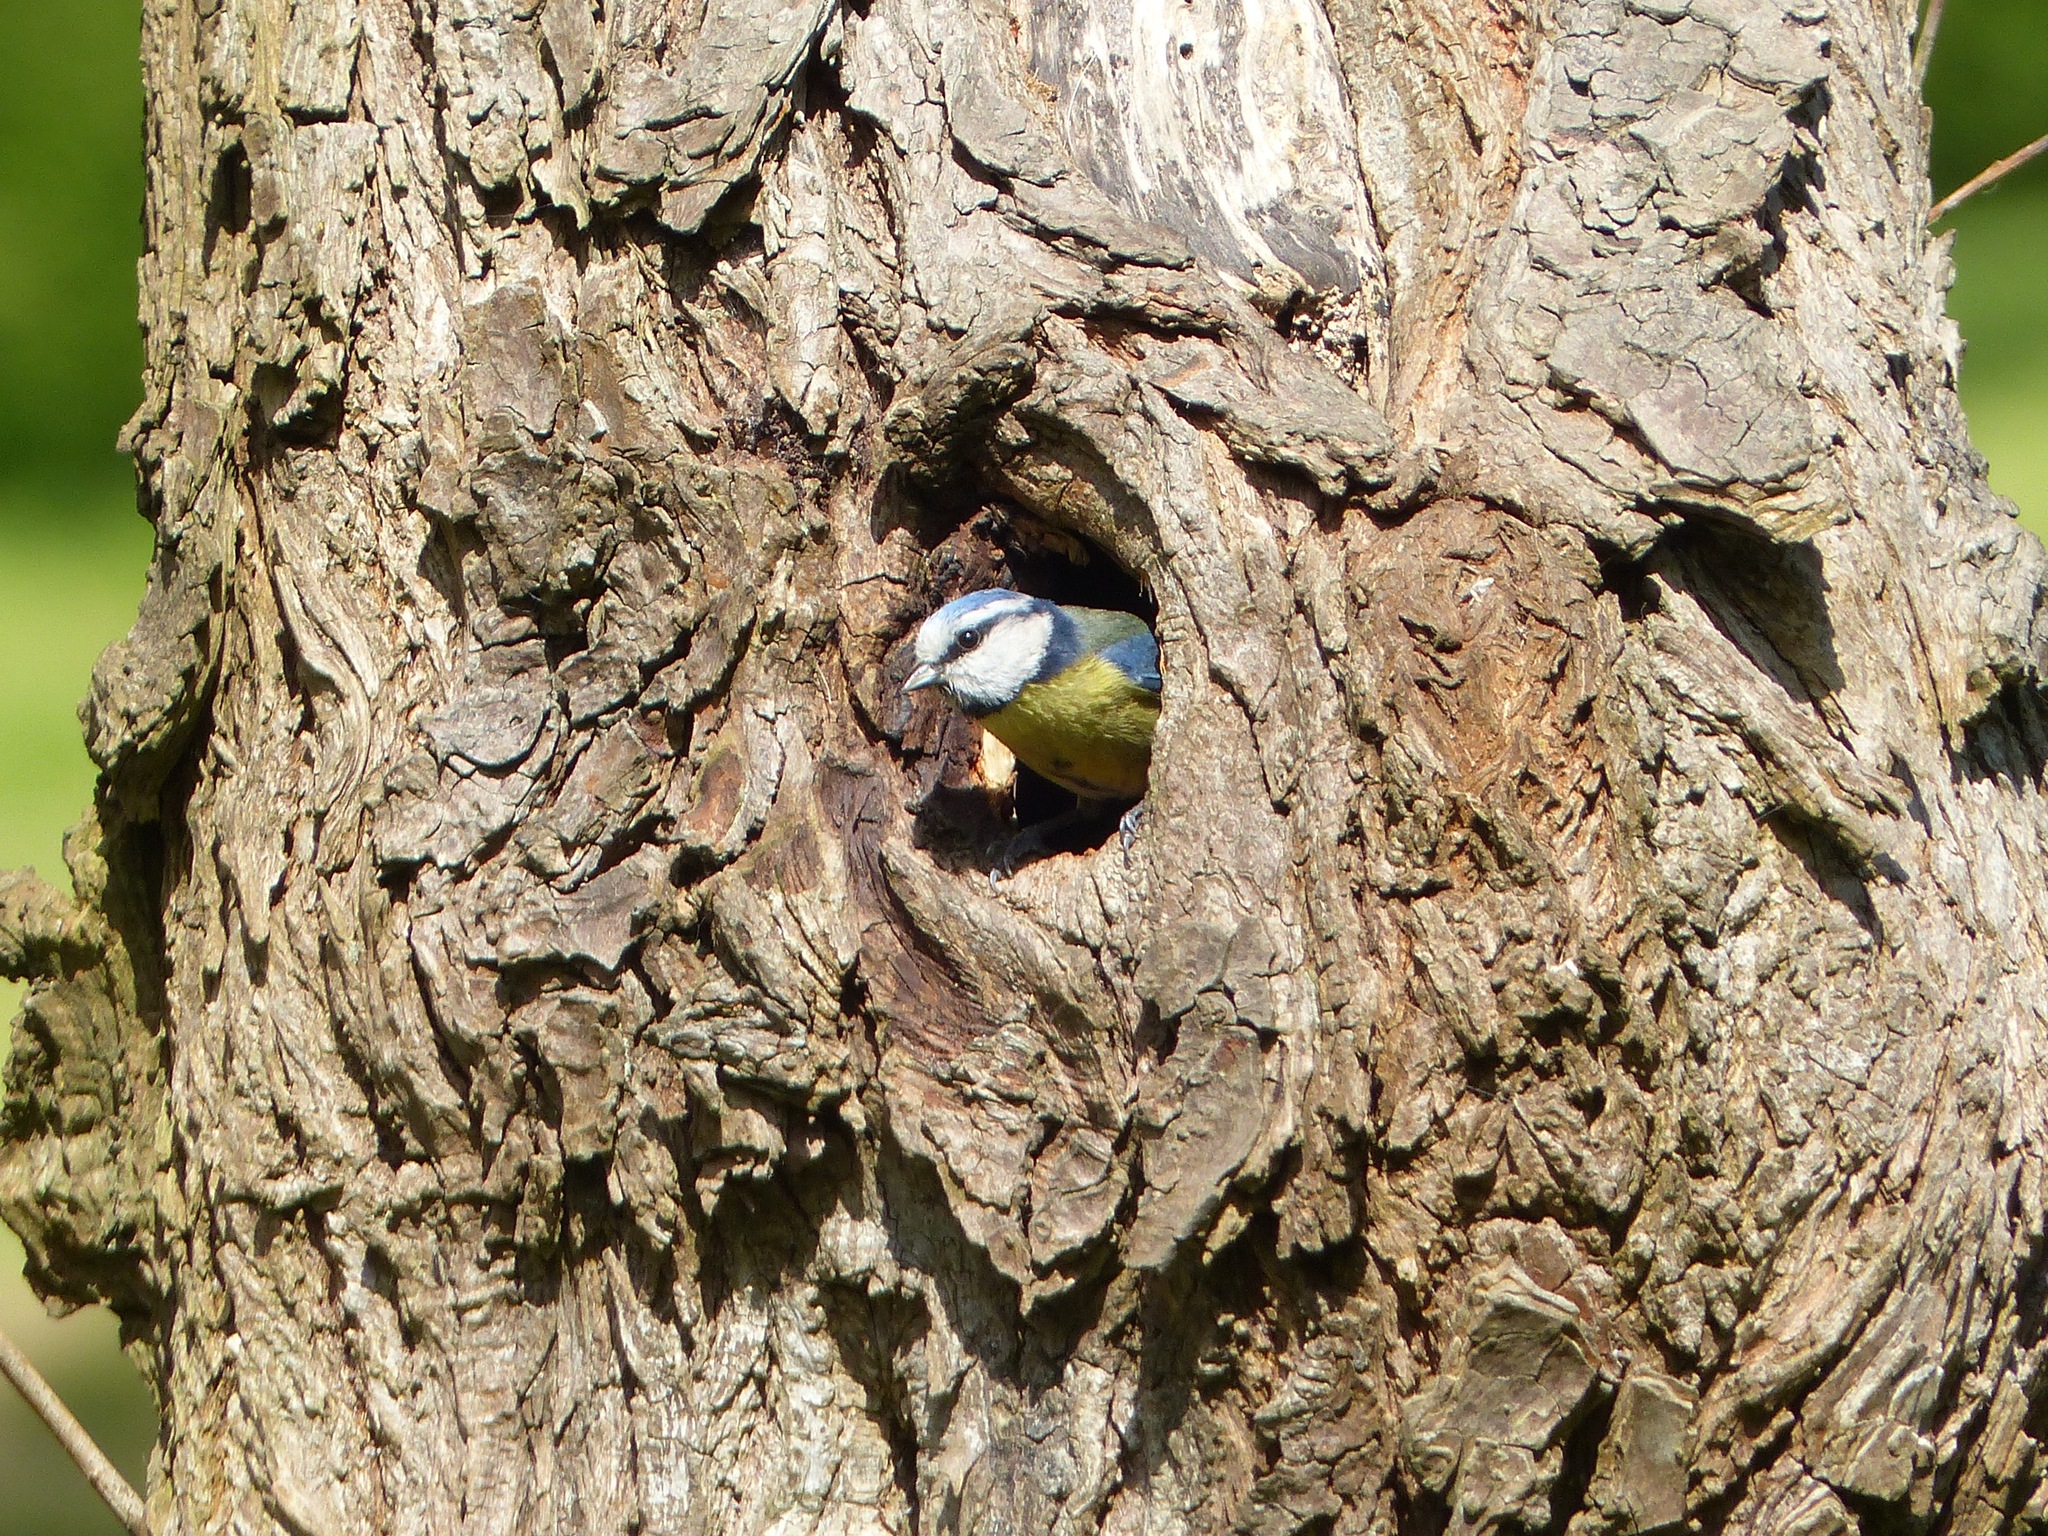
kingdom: Animalia
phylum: Chordata
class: Aves
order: Passeriformes
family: Paridae
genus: Cyanistes
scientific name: Cyanistes caeruleus
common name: Eurasian blue tit
